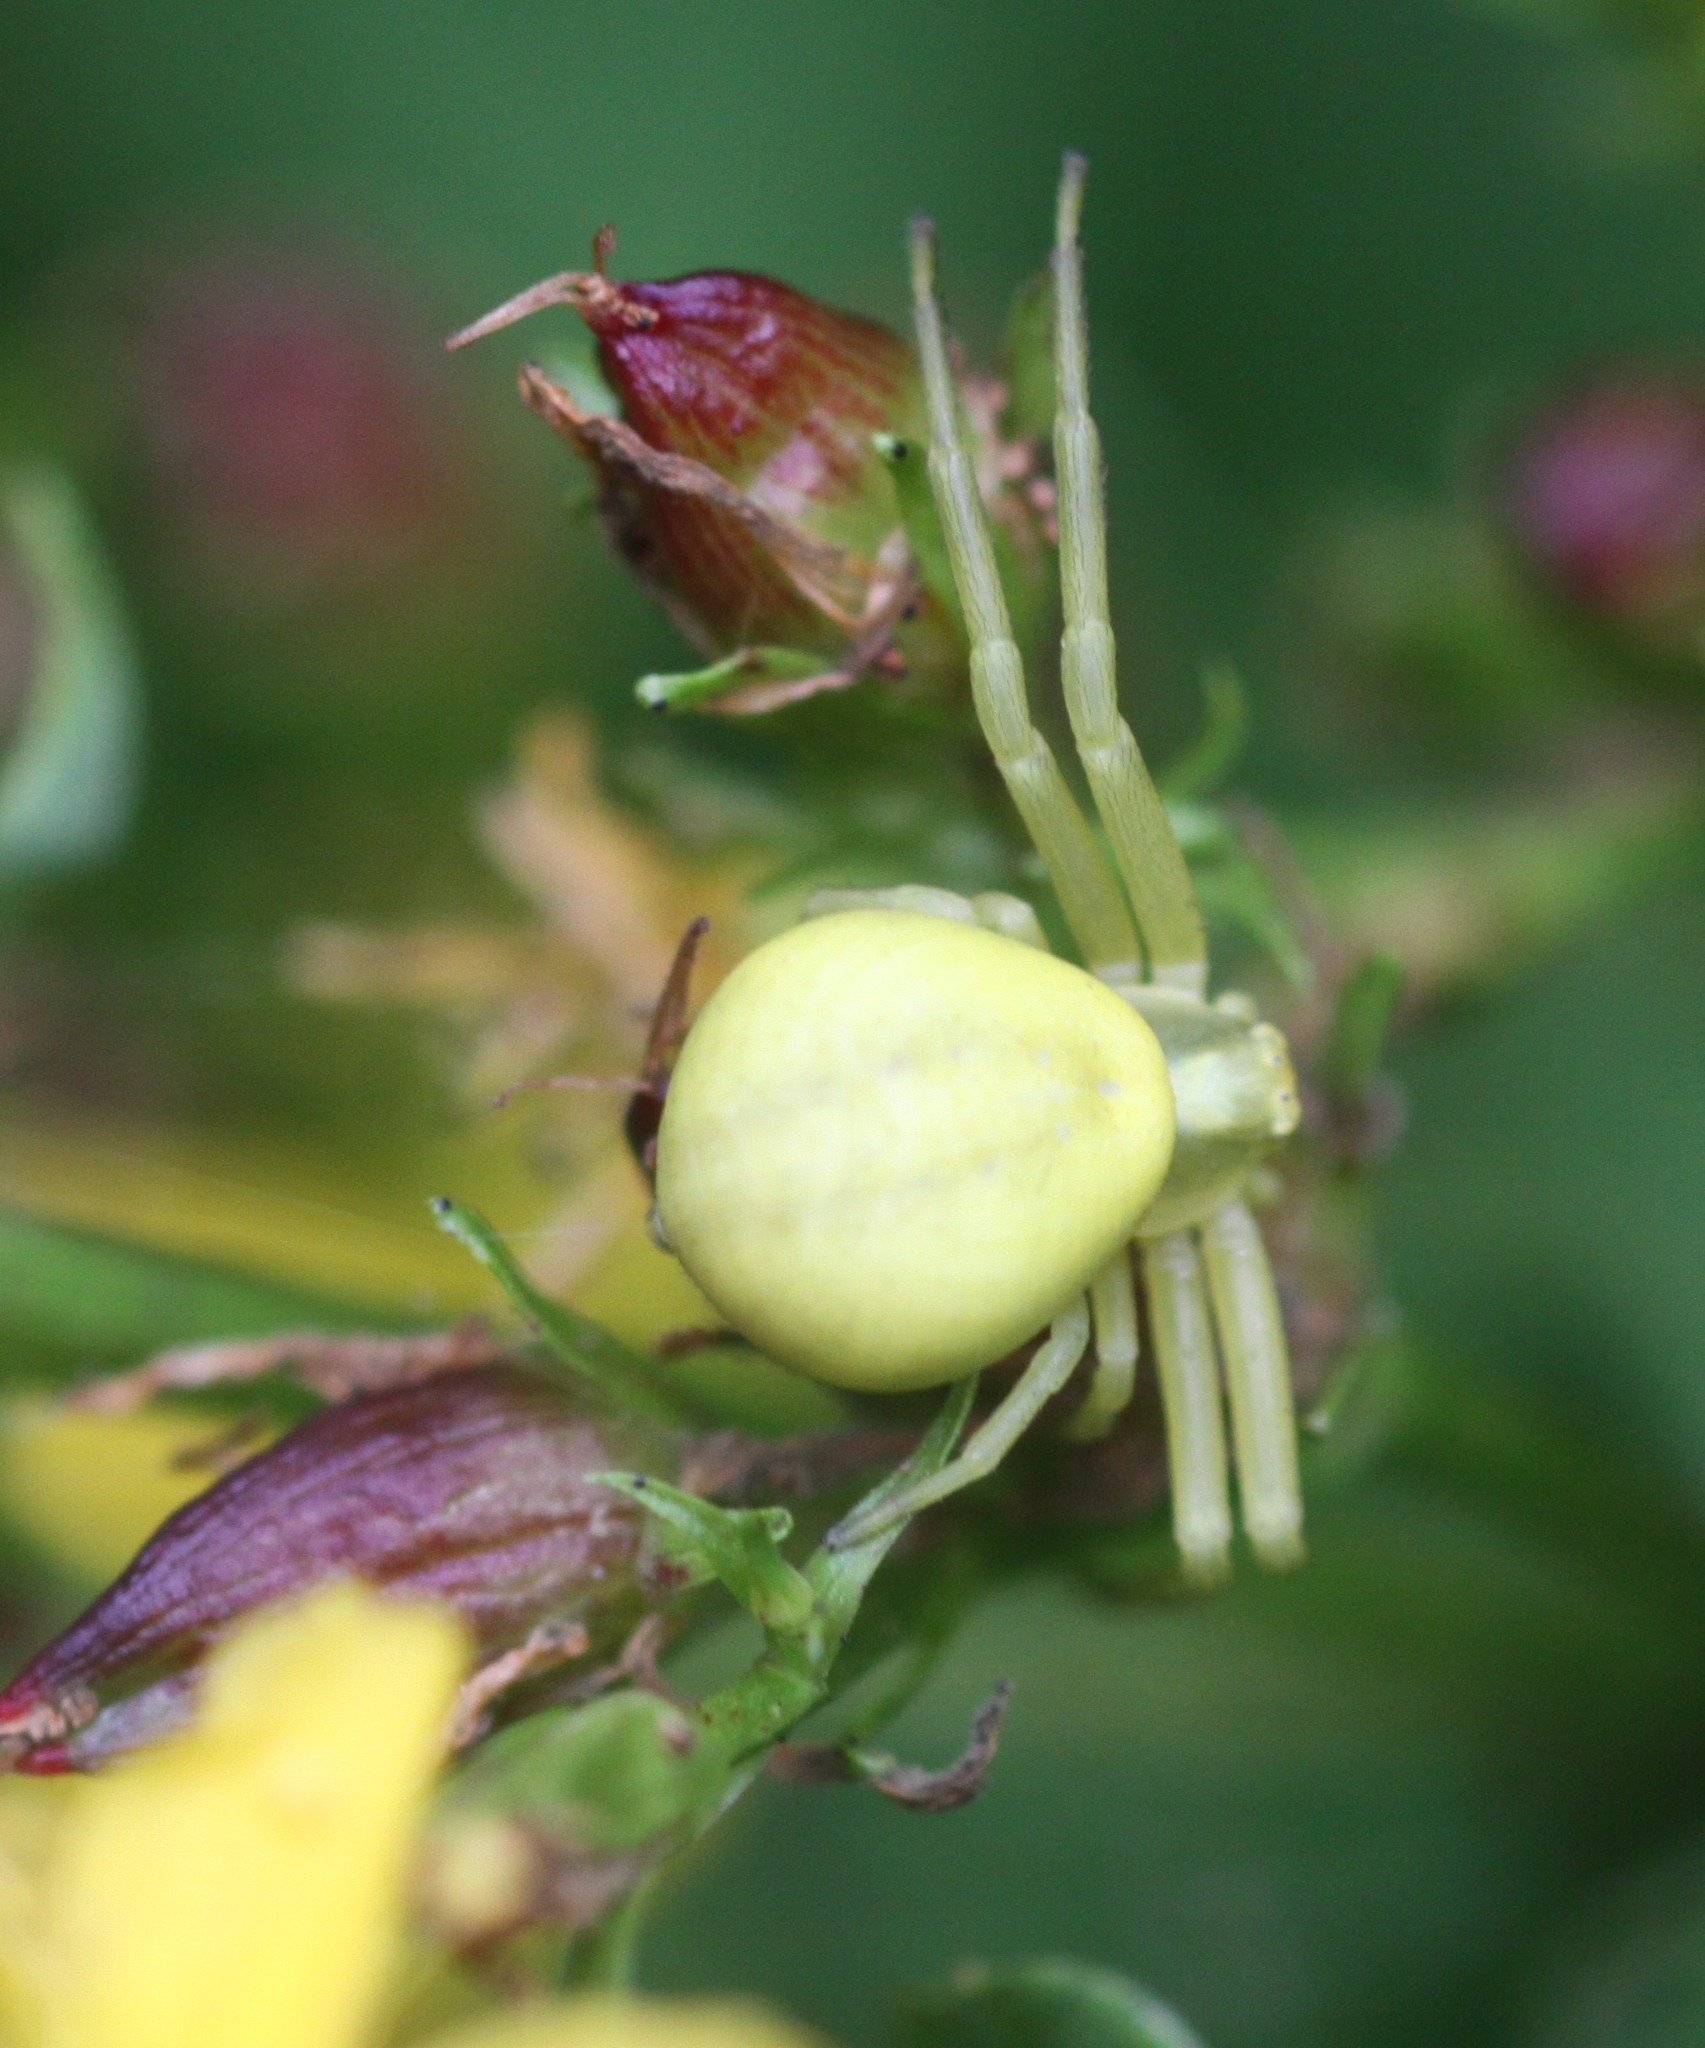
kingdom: Animalia
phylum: Arthropoda
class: Arachnida
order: Araneae
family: Thomisidae
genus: Misumena
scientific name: Misumena vatia
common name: Goldenrod crab spider
